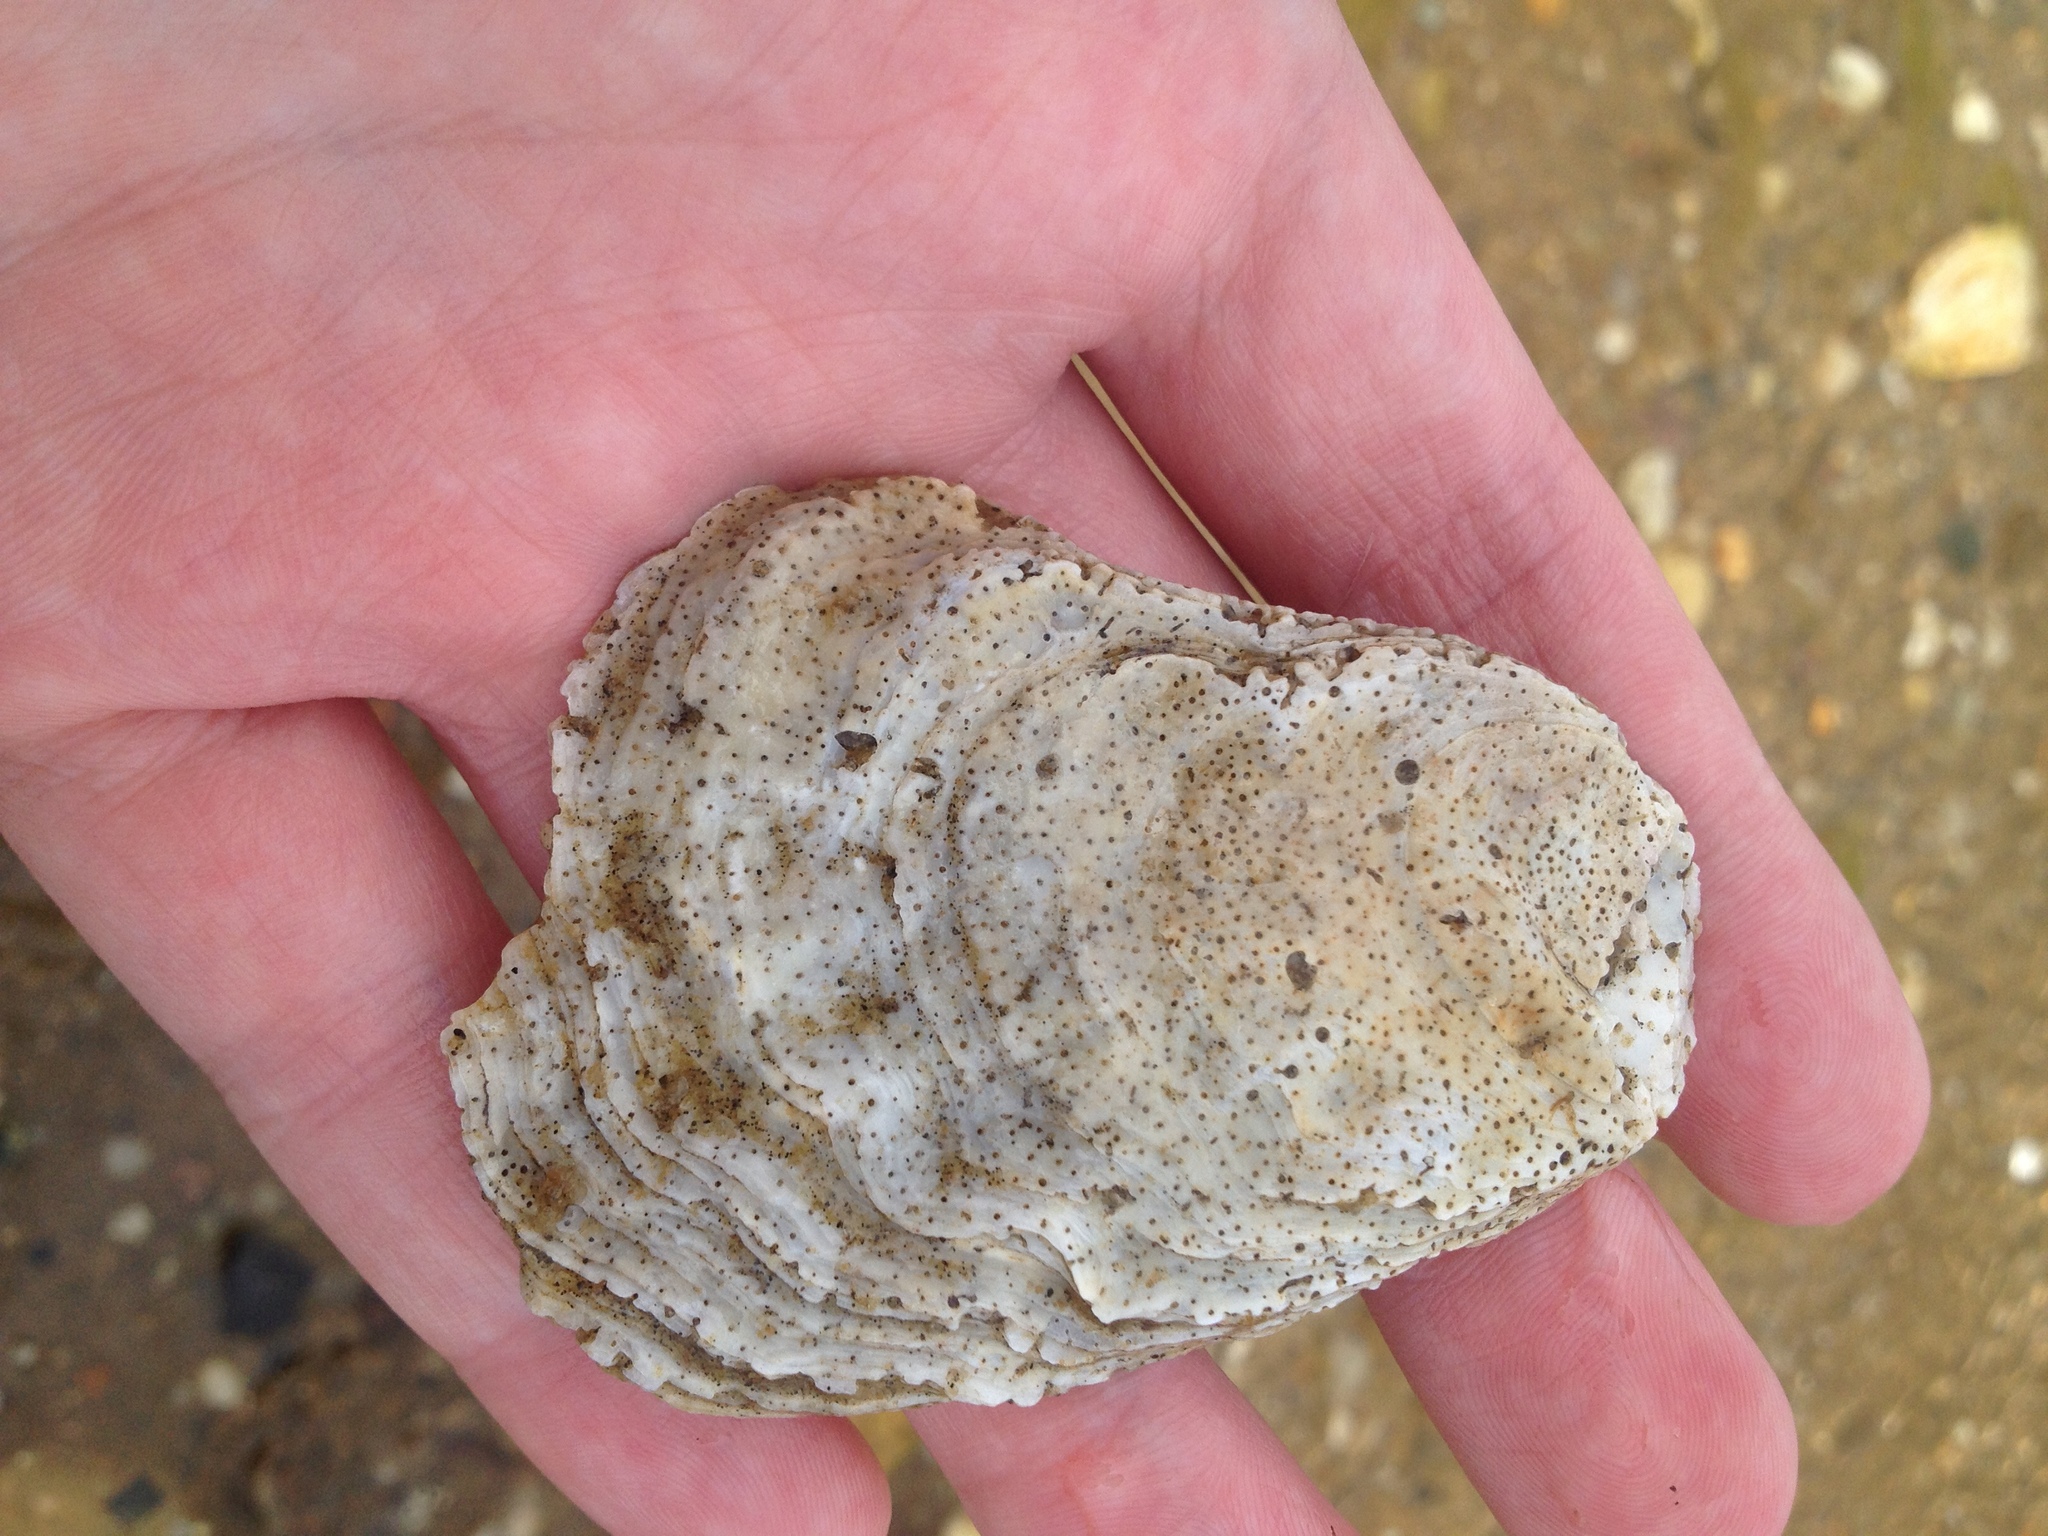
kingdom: Animalia
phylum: Mollusca
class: Bivalvia
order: Ostreida
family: Ostreidae
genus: Crassostrea
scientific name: Crassostrea virginica
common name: American oyster
